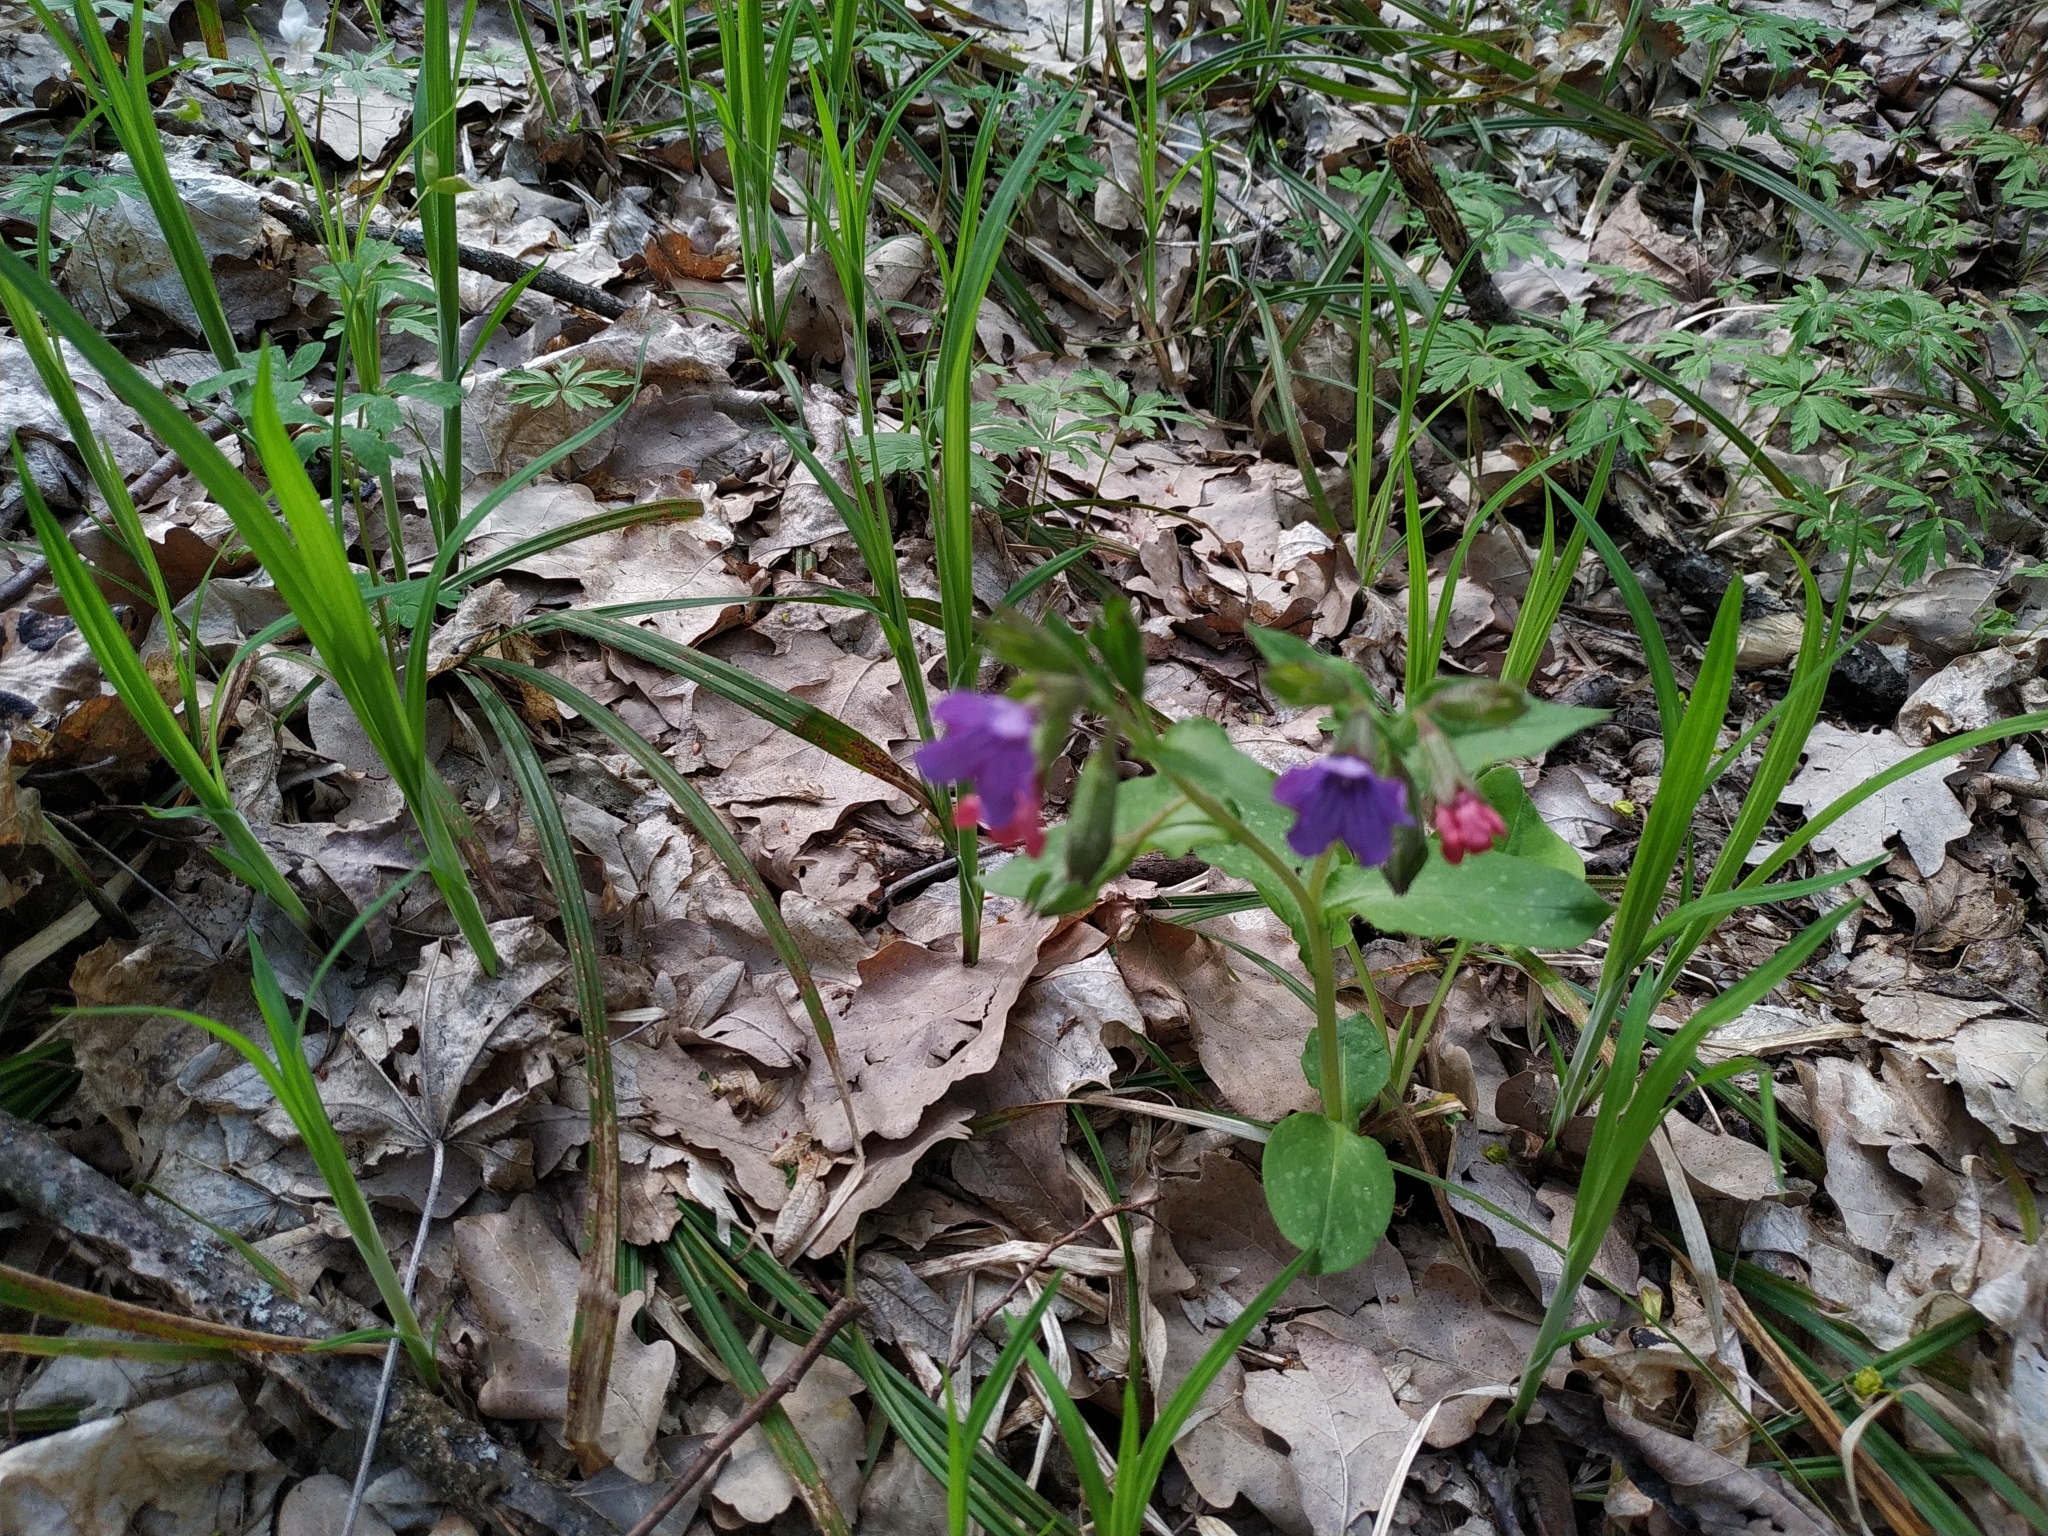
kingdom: Plantae
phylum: Tracheophyta
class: Magnoliopsida
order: Boraginales
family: Boraginaceae
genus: Pulmonaria
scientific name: Pulmonaria obscura
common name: Suffolk lungwort
